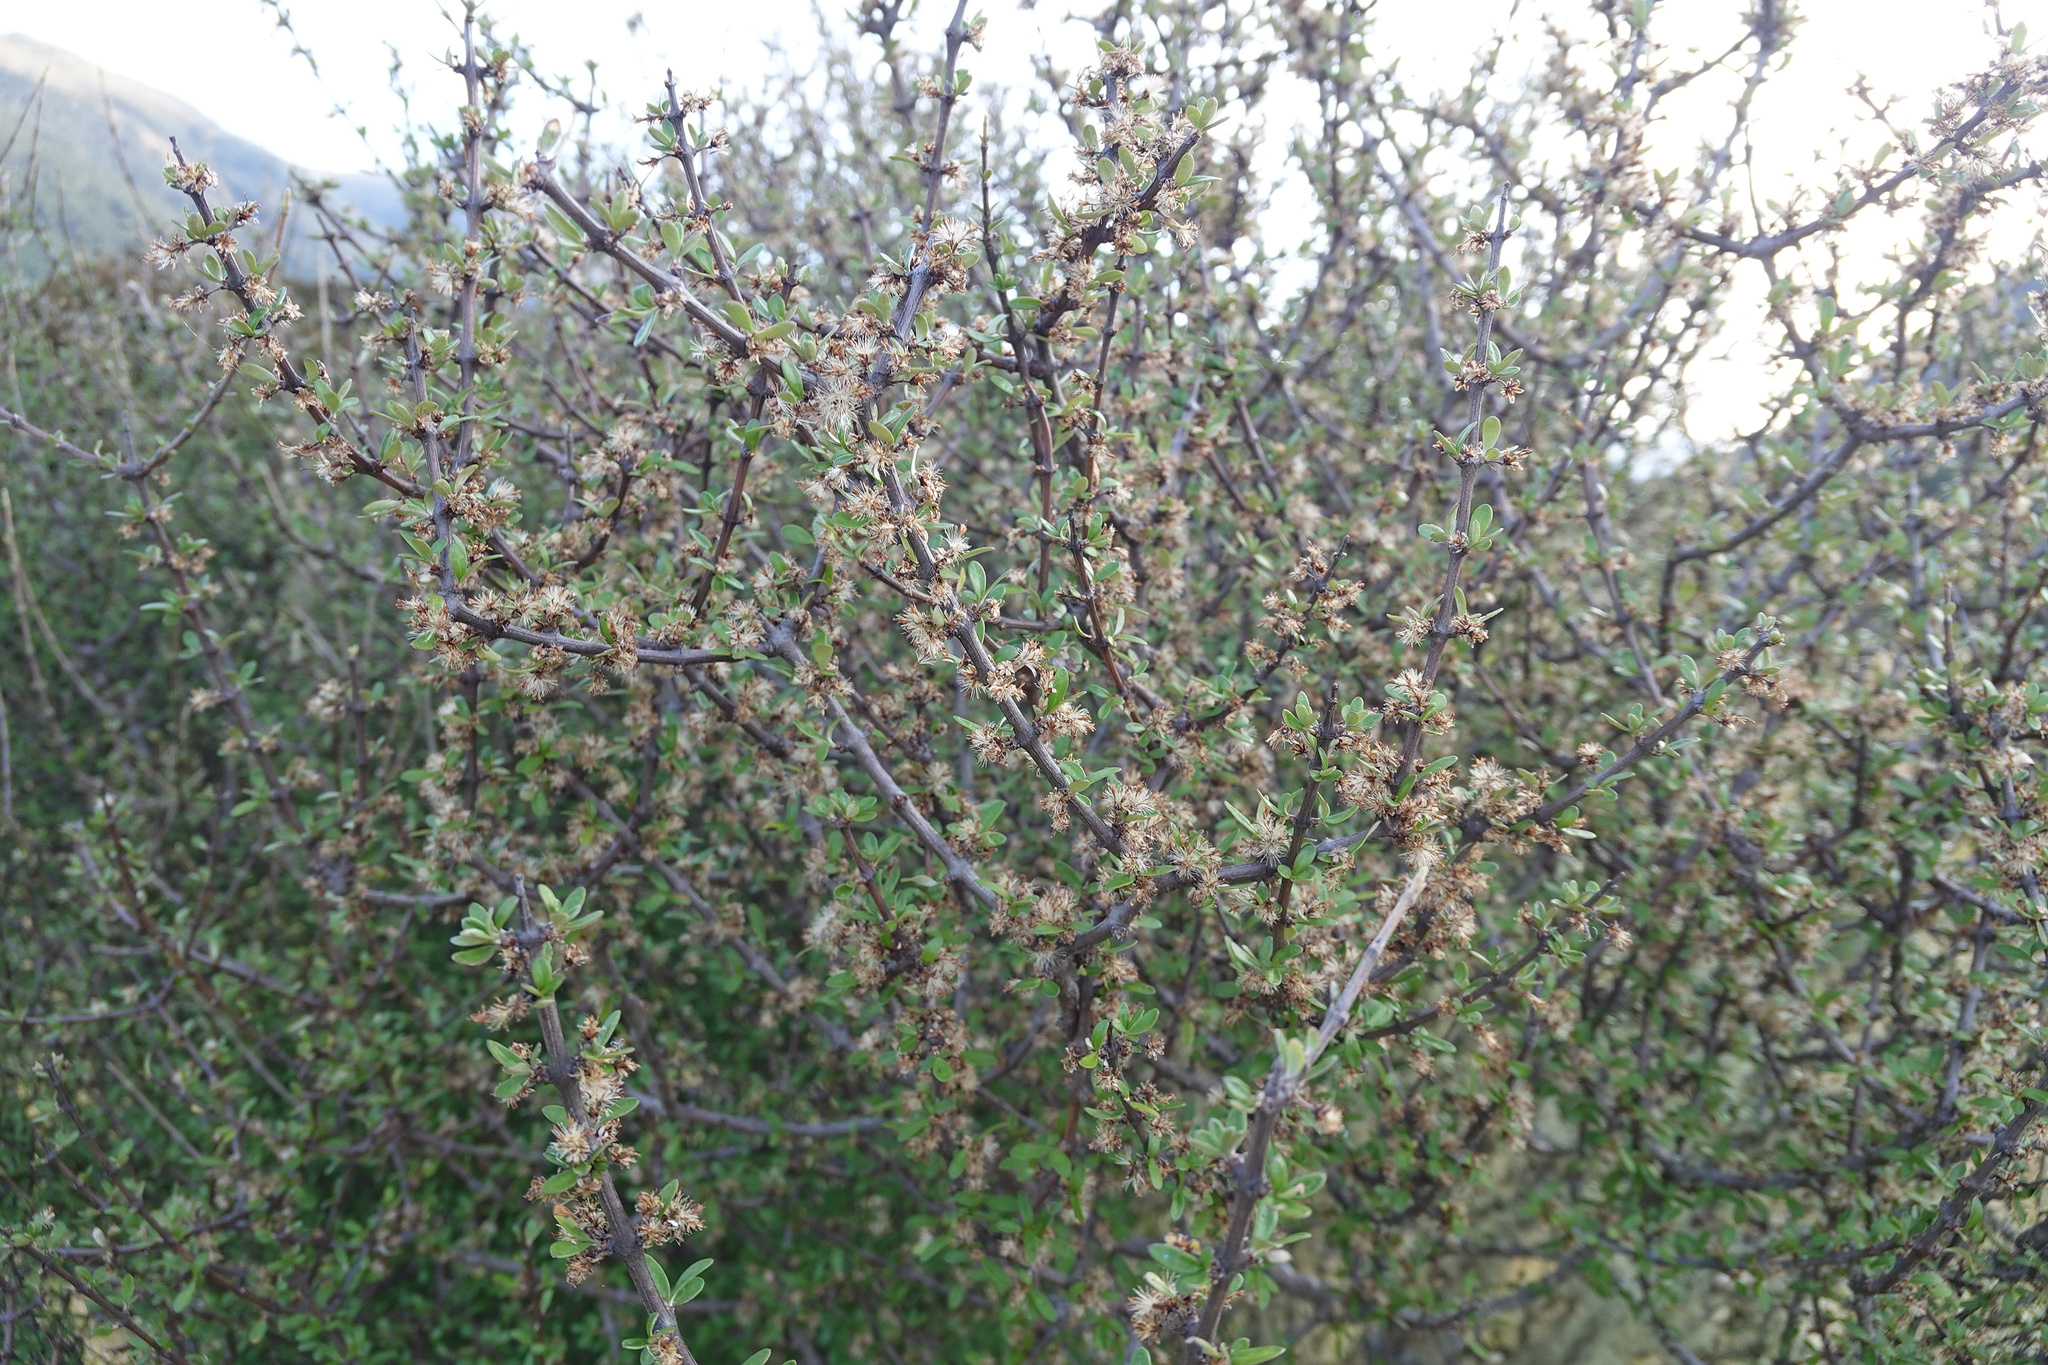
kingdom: Plantae
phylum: Tracheophyta
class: Magnoliopsida
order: Asterales
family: Asteraceae
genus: Olearia
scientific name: Olearia virgata
